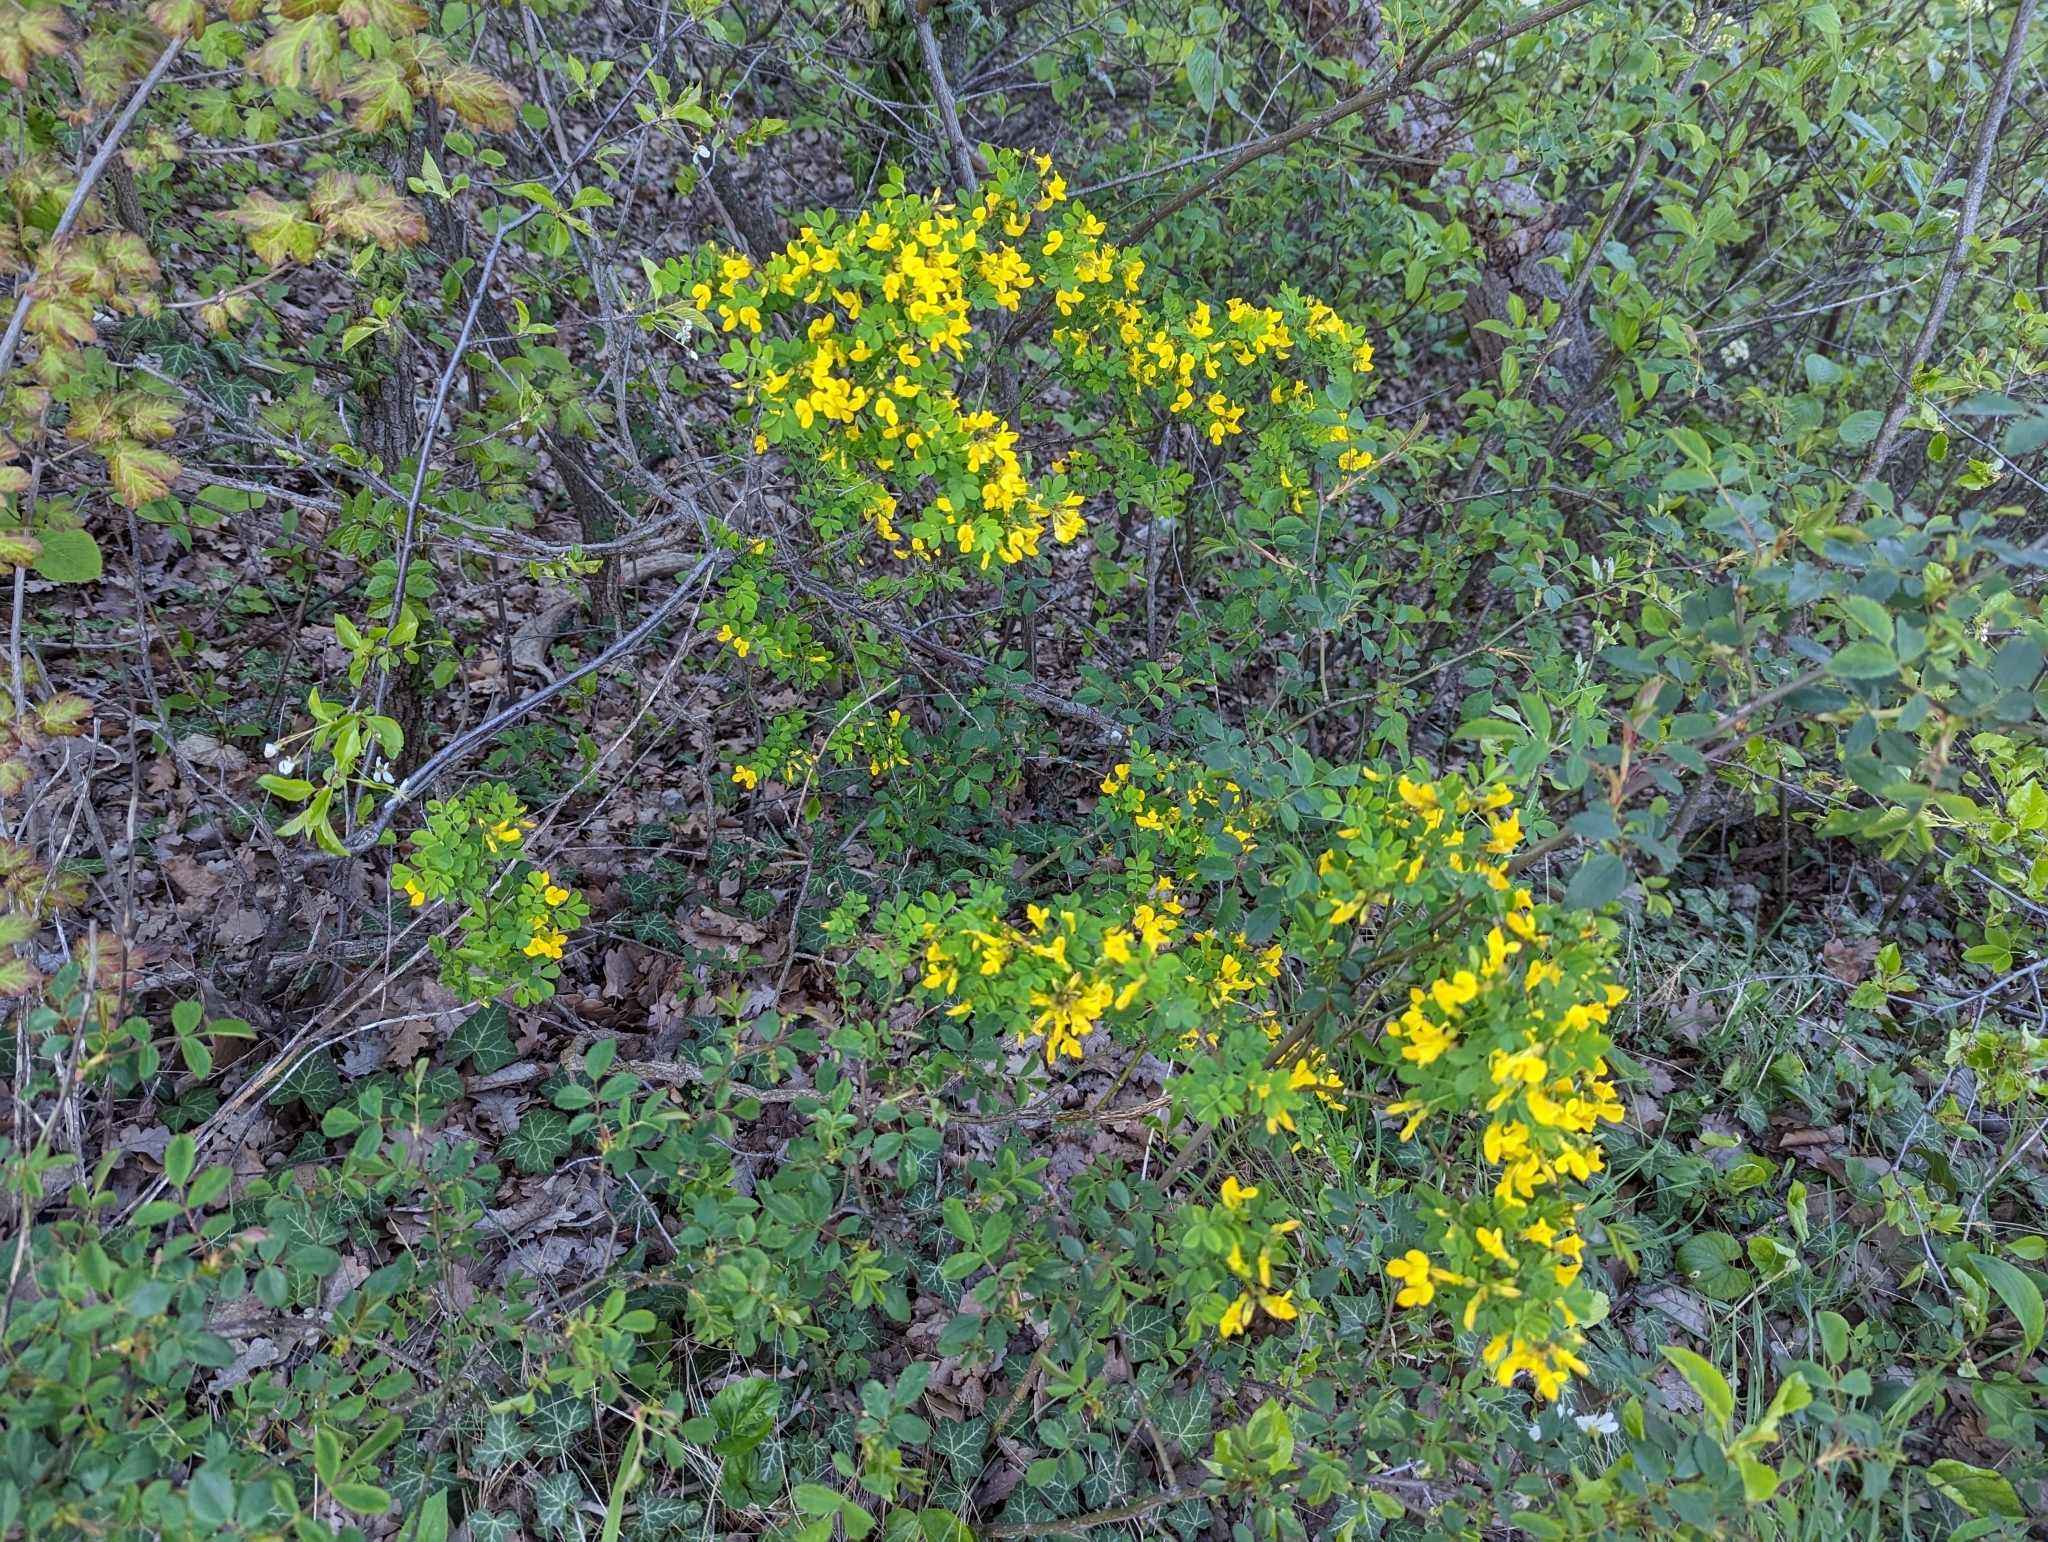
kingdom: Plantae
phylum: Tracheophyta
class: Magnoliopsida
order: Fabales
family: Fabaceae
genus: Hippocrepis
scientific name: Hippocrepis emerus
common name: Scorpion senna
